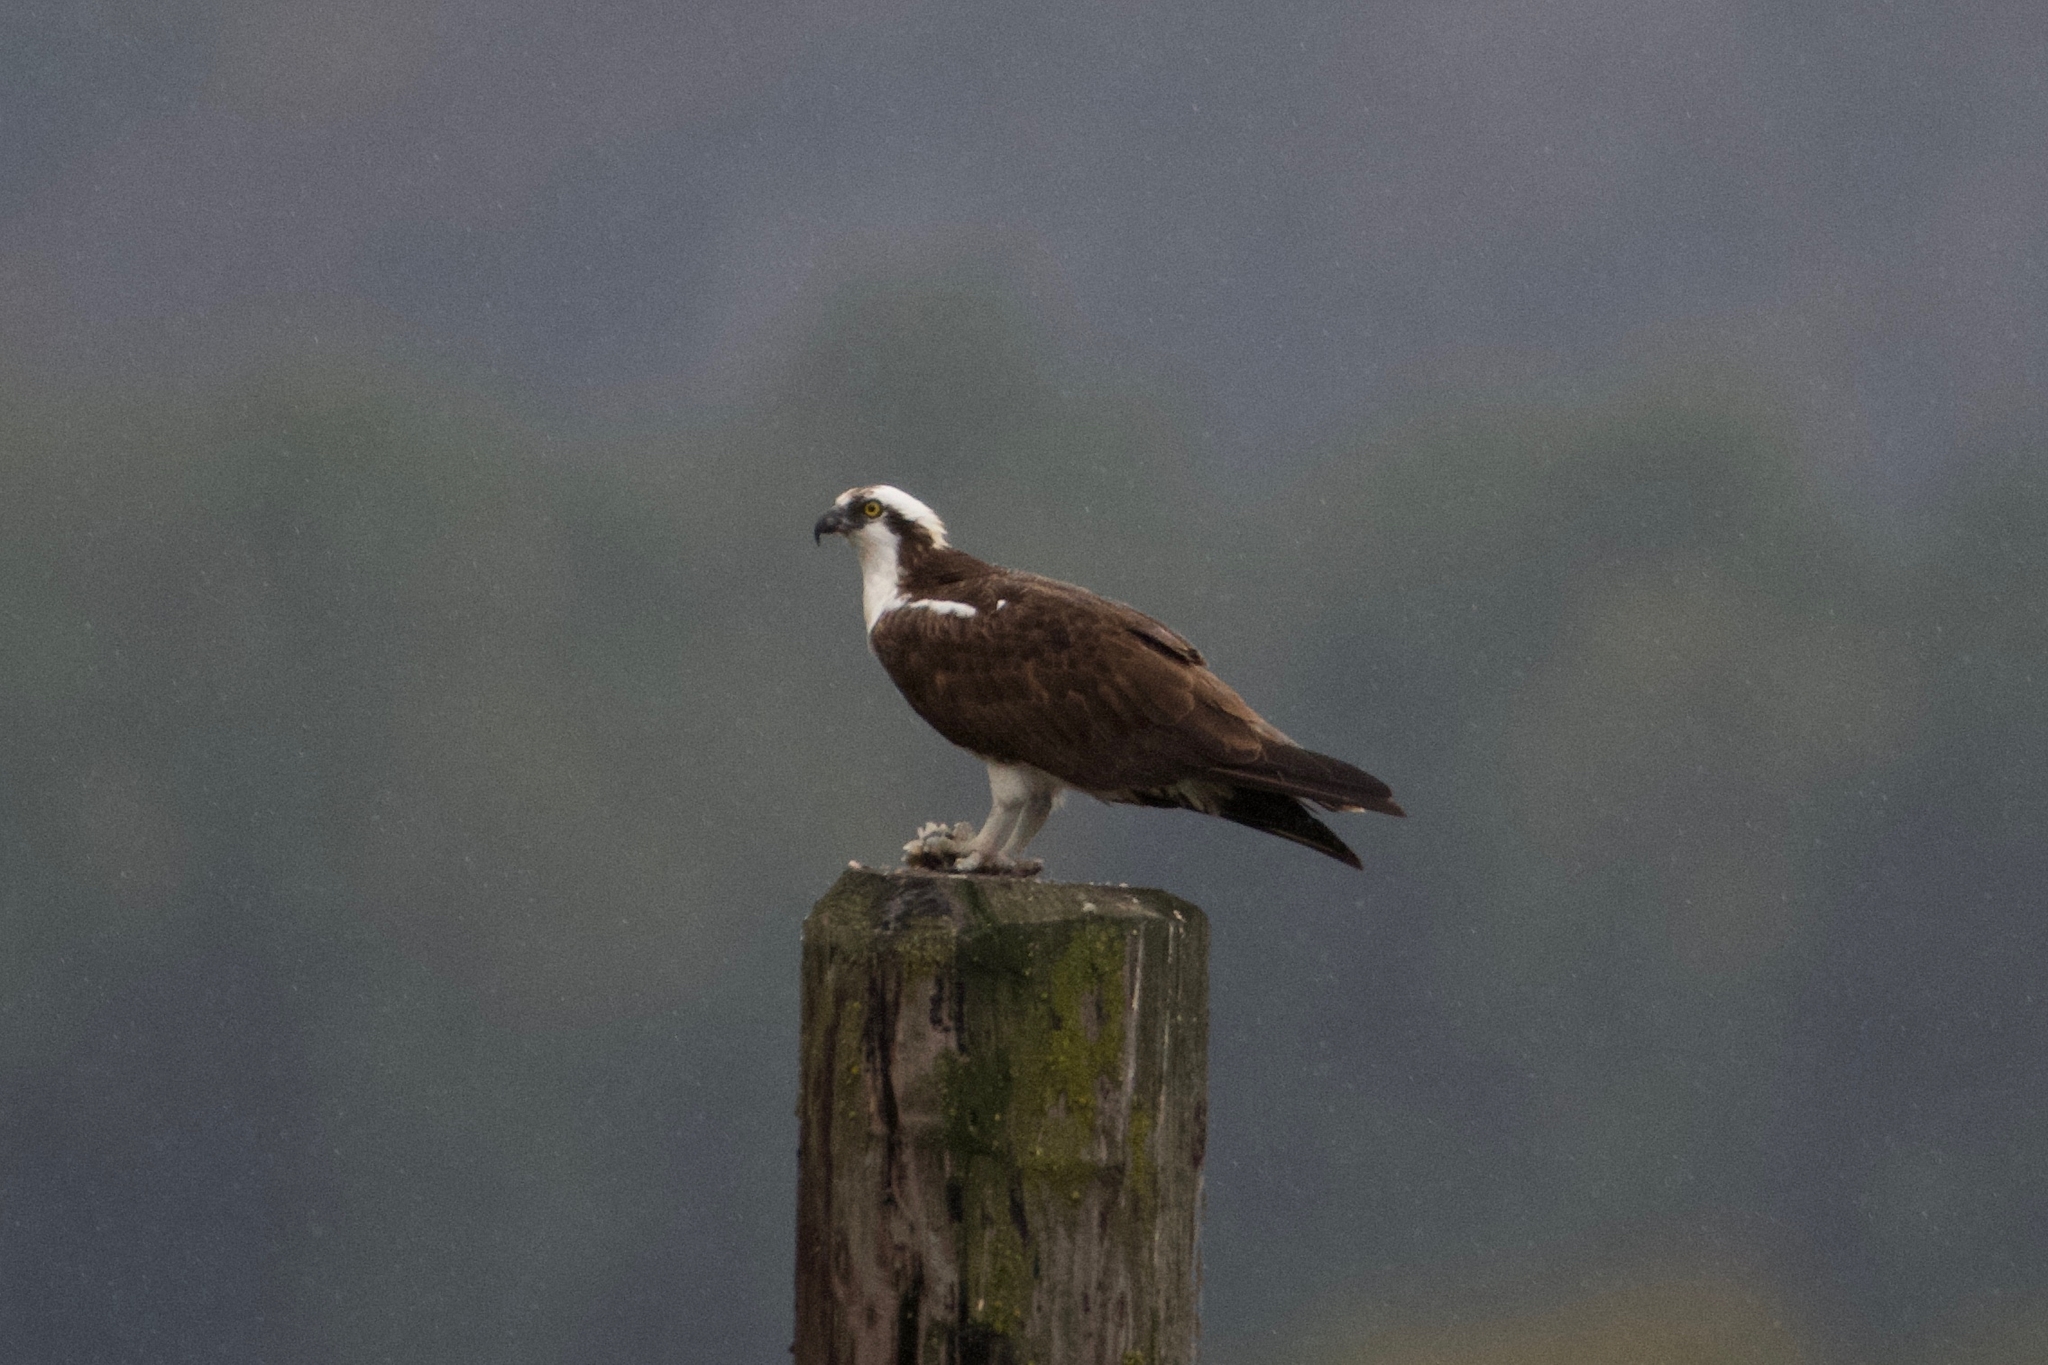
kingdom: Animalia
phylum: Chordata
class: Aves
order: Accipitriformes
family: Pandionidae
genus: Pandion
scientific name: Pandion haliaetus
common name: Osprey
